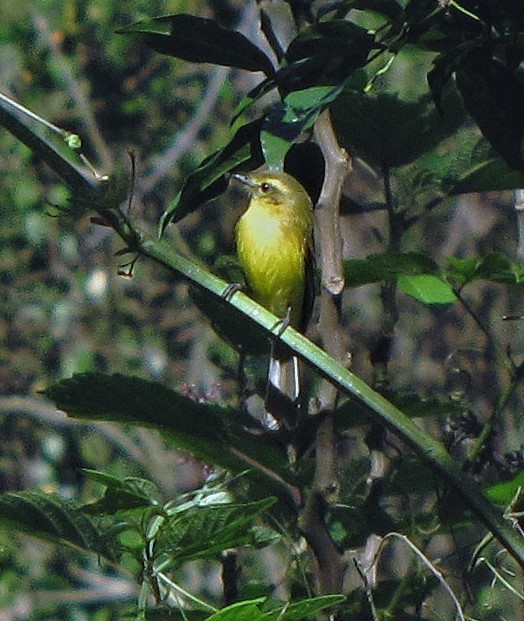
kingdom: Animalia
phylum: Chordata
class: Aves
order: Passeriformes
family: Tyrannidae
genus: Capsiempis
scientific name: Capsiempis flaveola
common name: Yellow tyrannulet
